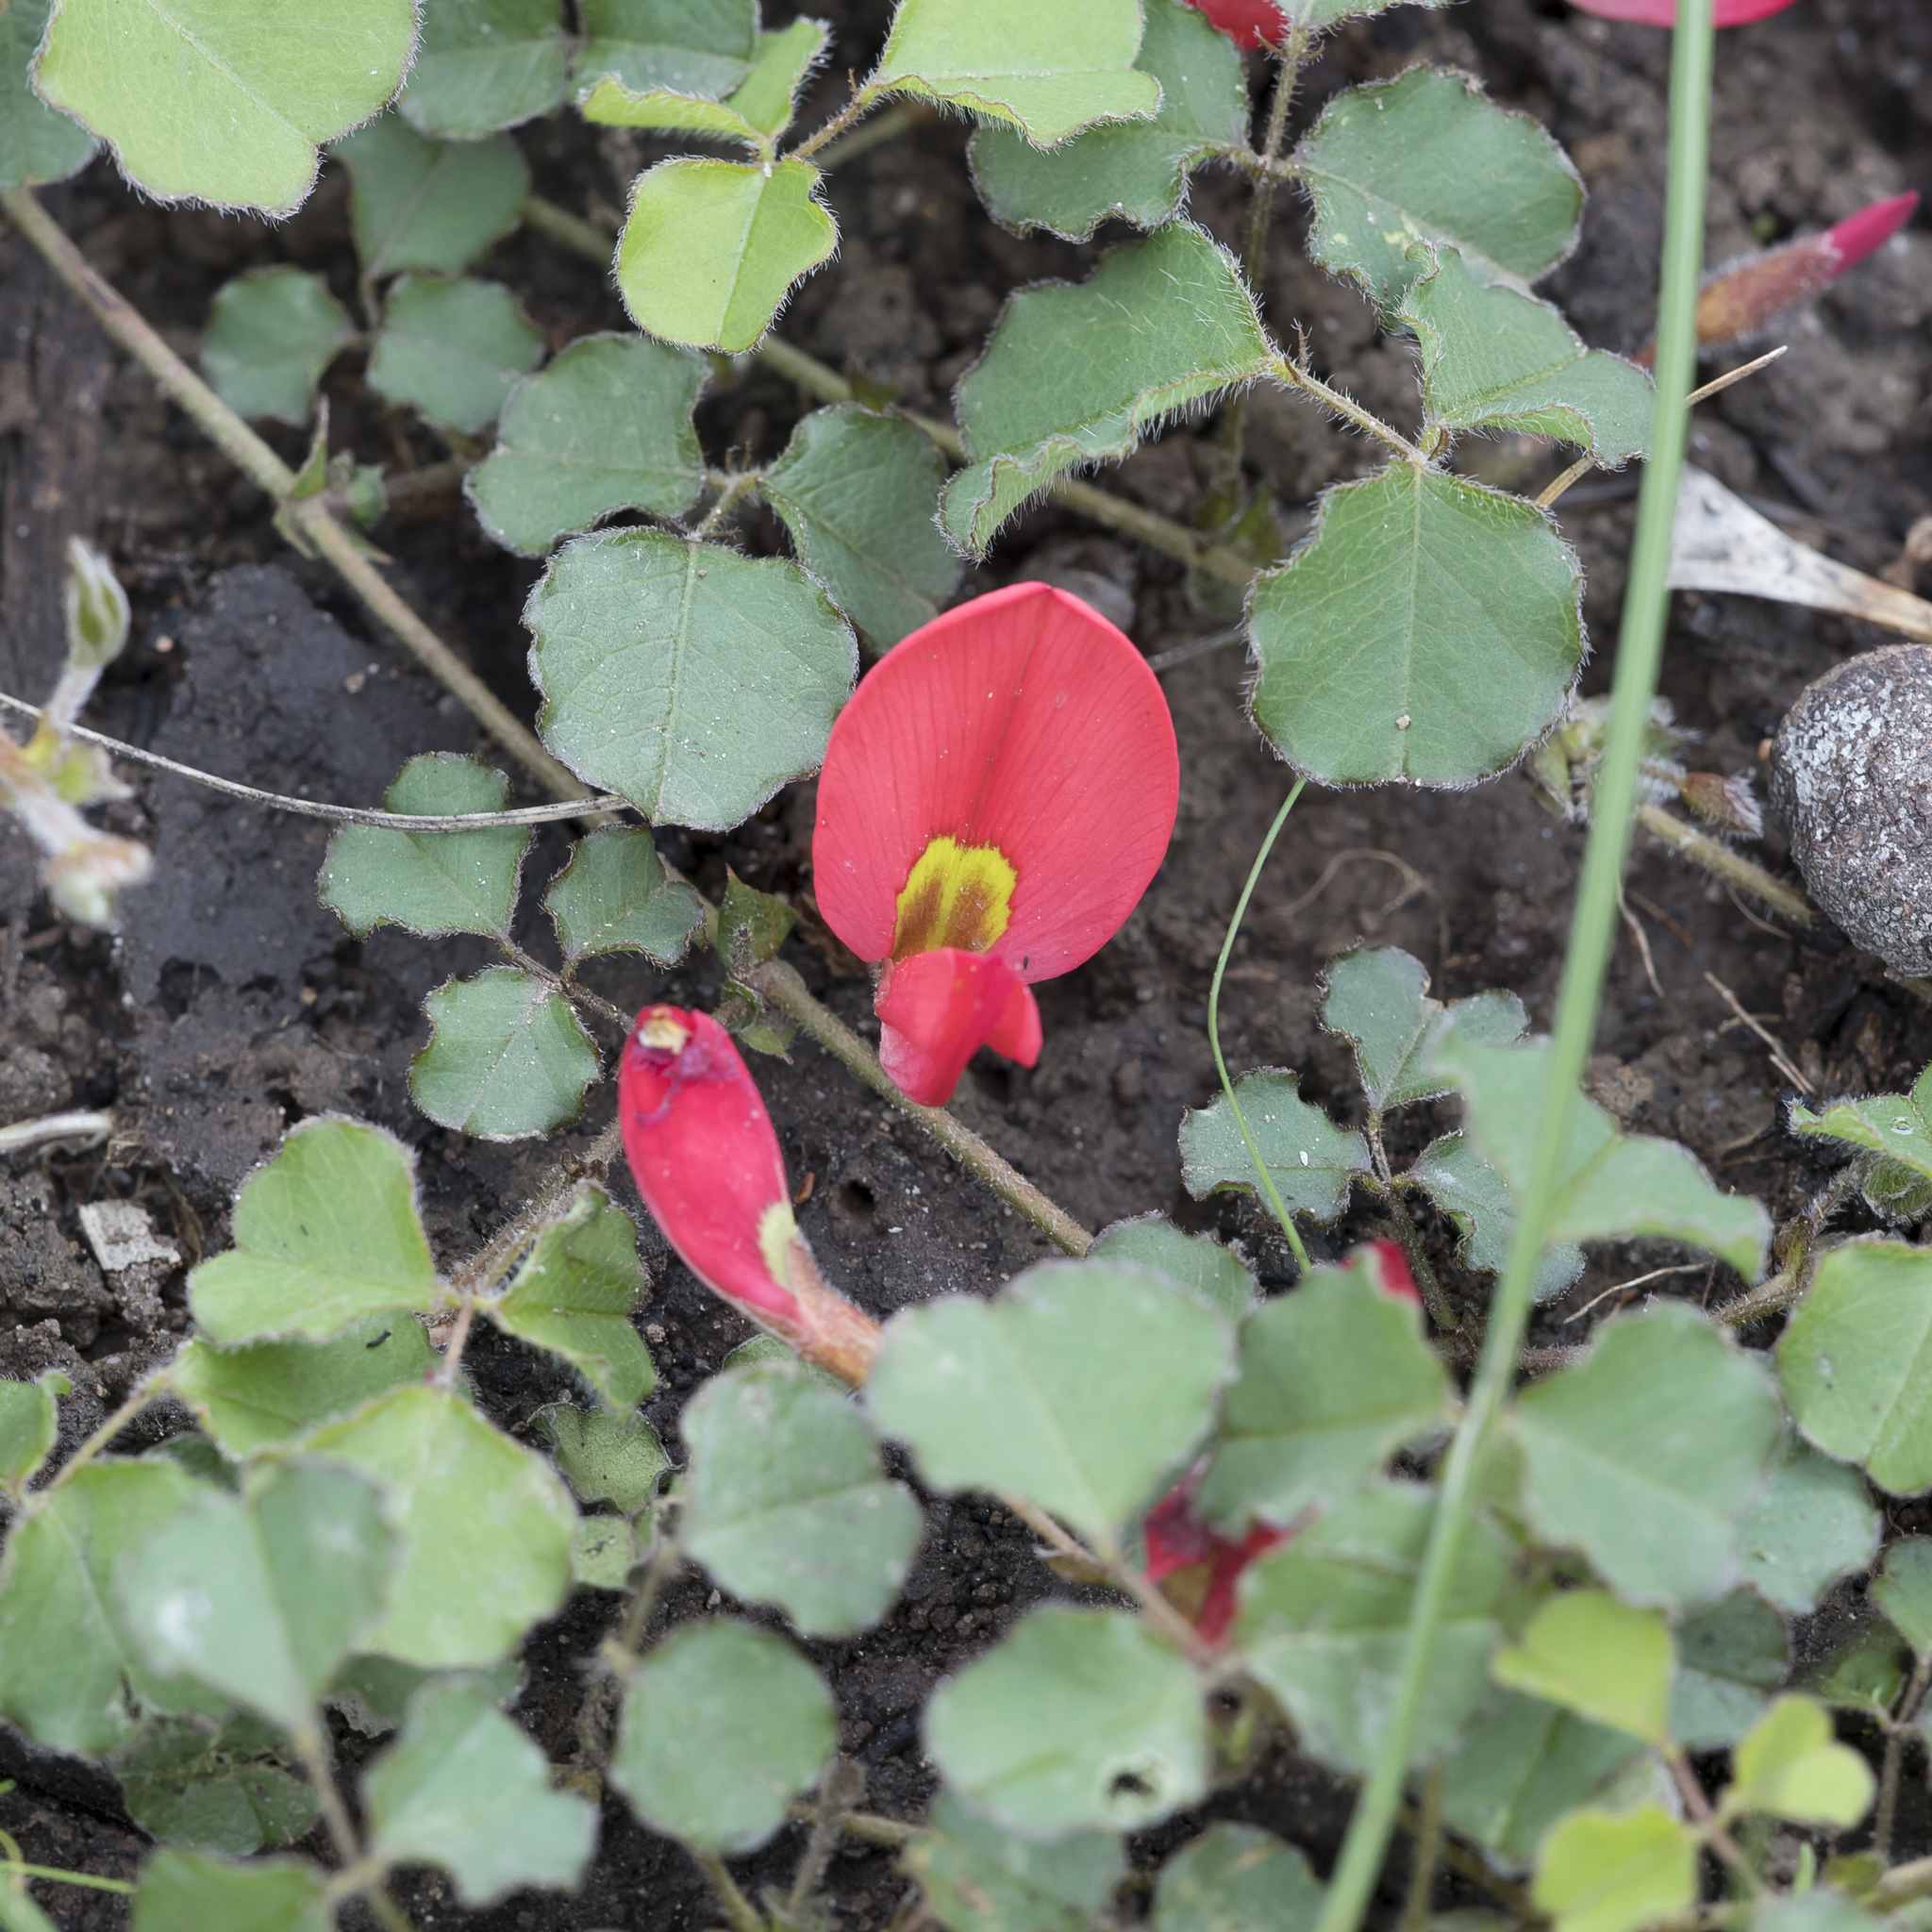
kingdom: Plantae
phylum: Tracheophyta
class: Magnoliopsida
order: Fabales
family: Fabaceae
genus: Kennedia
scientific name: Kennedia prostrata
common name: Running-postman
